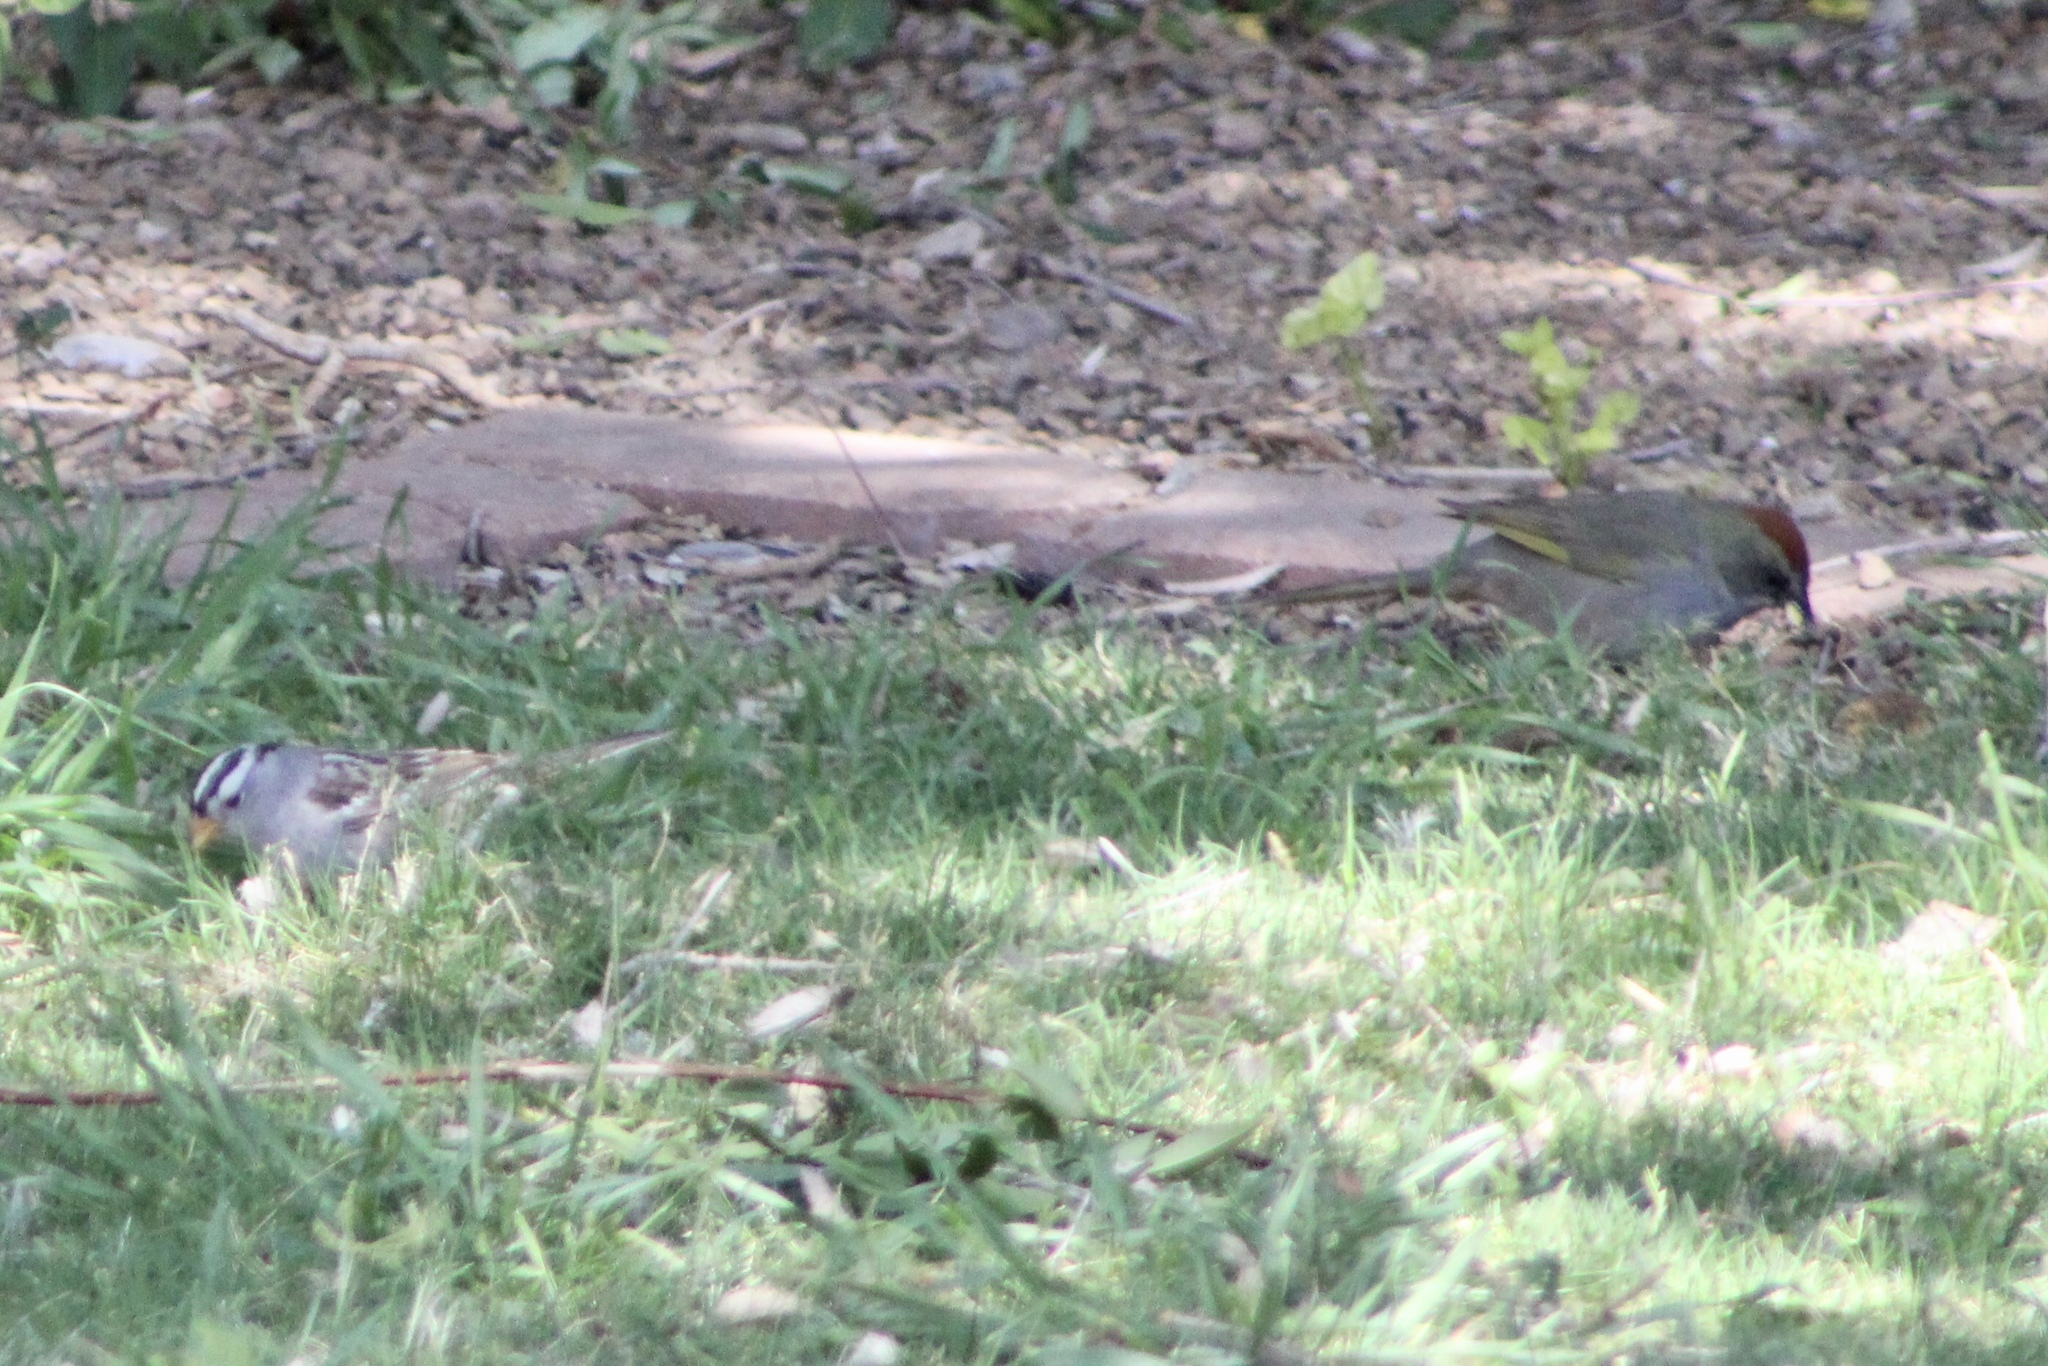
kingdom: Animalia
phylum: Chordata
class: Aves
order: Columbiformes
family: Columbidae
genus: Zenaida
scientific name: Zenaida asiatica
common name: White-winged dove
